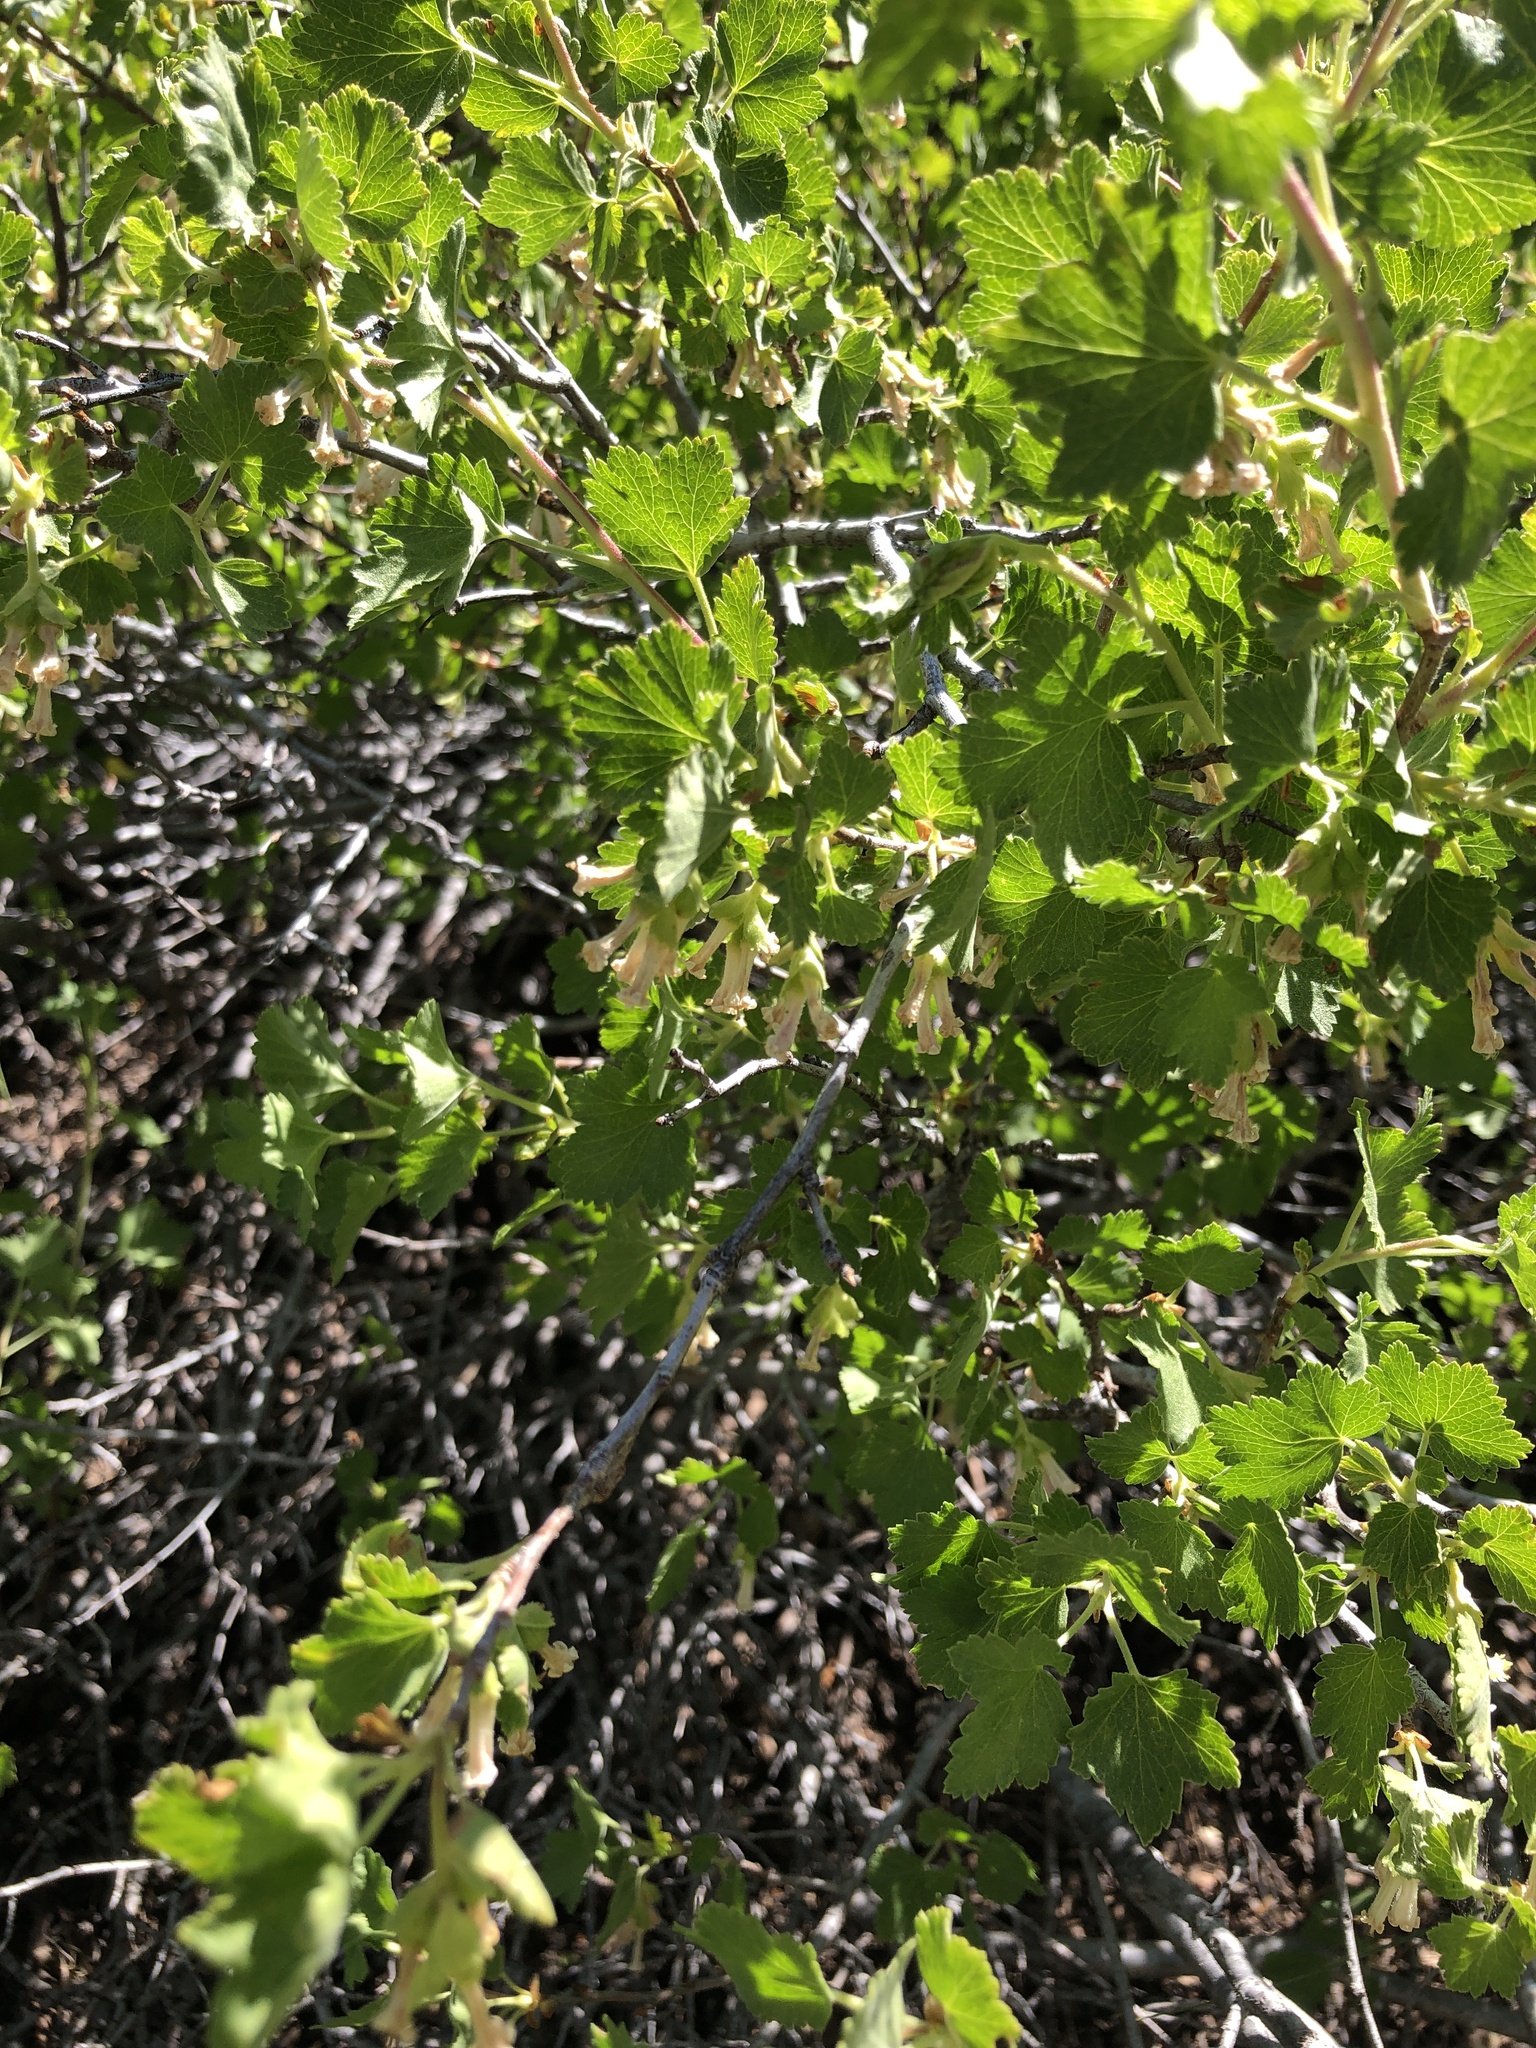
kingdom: Plantae
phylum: Tracheophyta
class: Magnoliopsida
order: Saxifragales
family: Grossulariaceae
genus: Ribes
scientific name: Ribes cereum
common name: Wax currant
